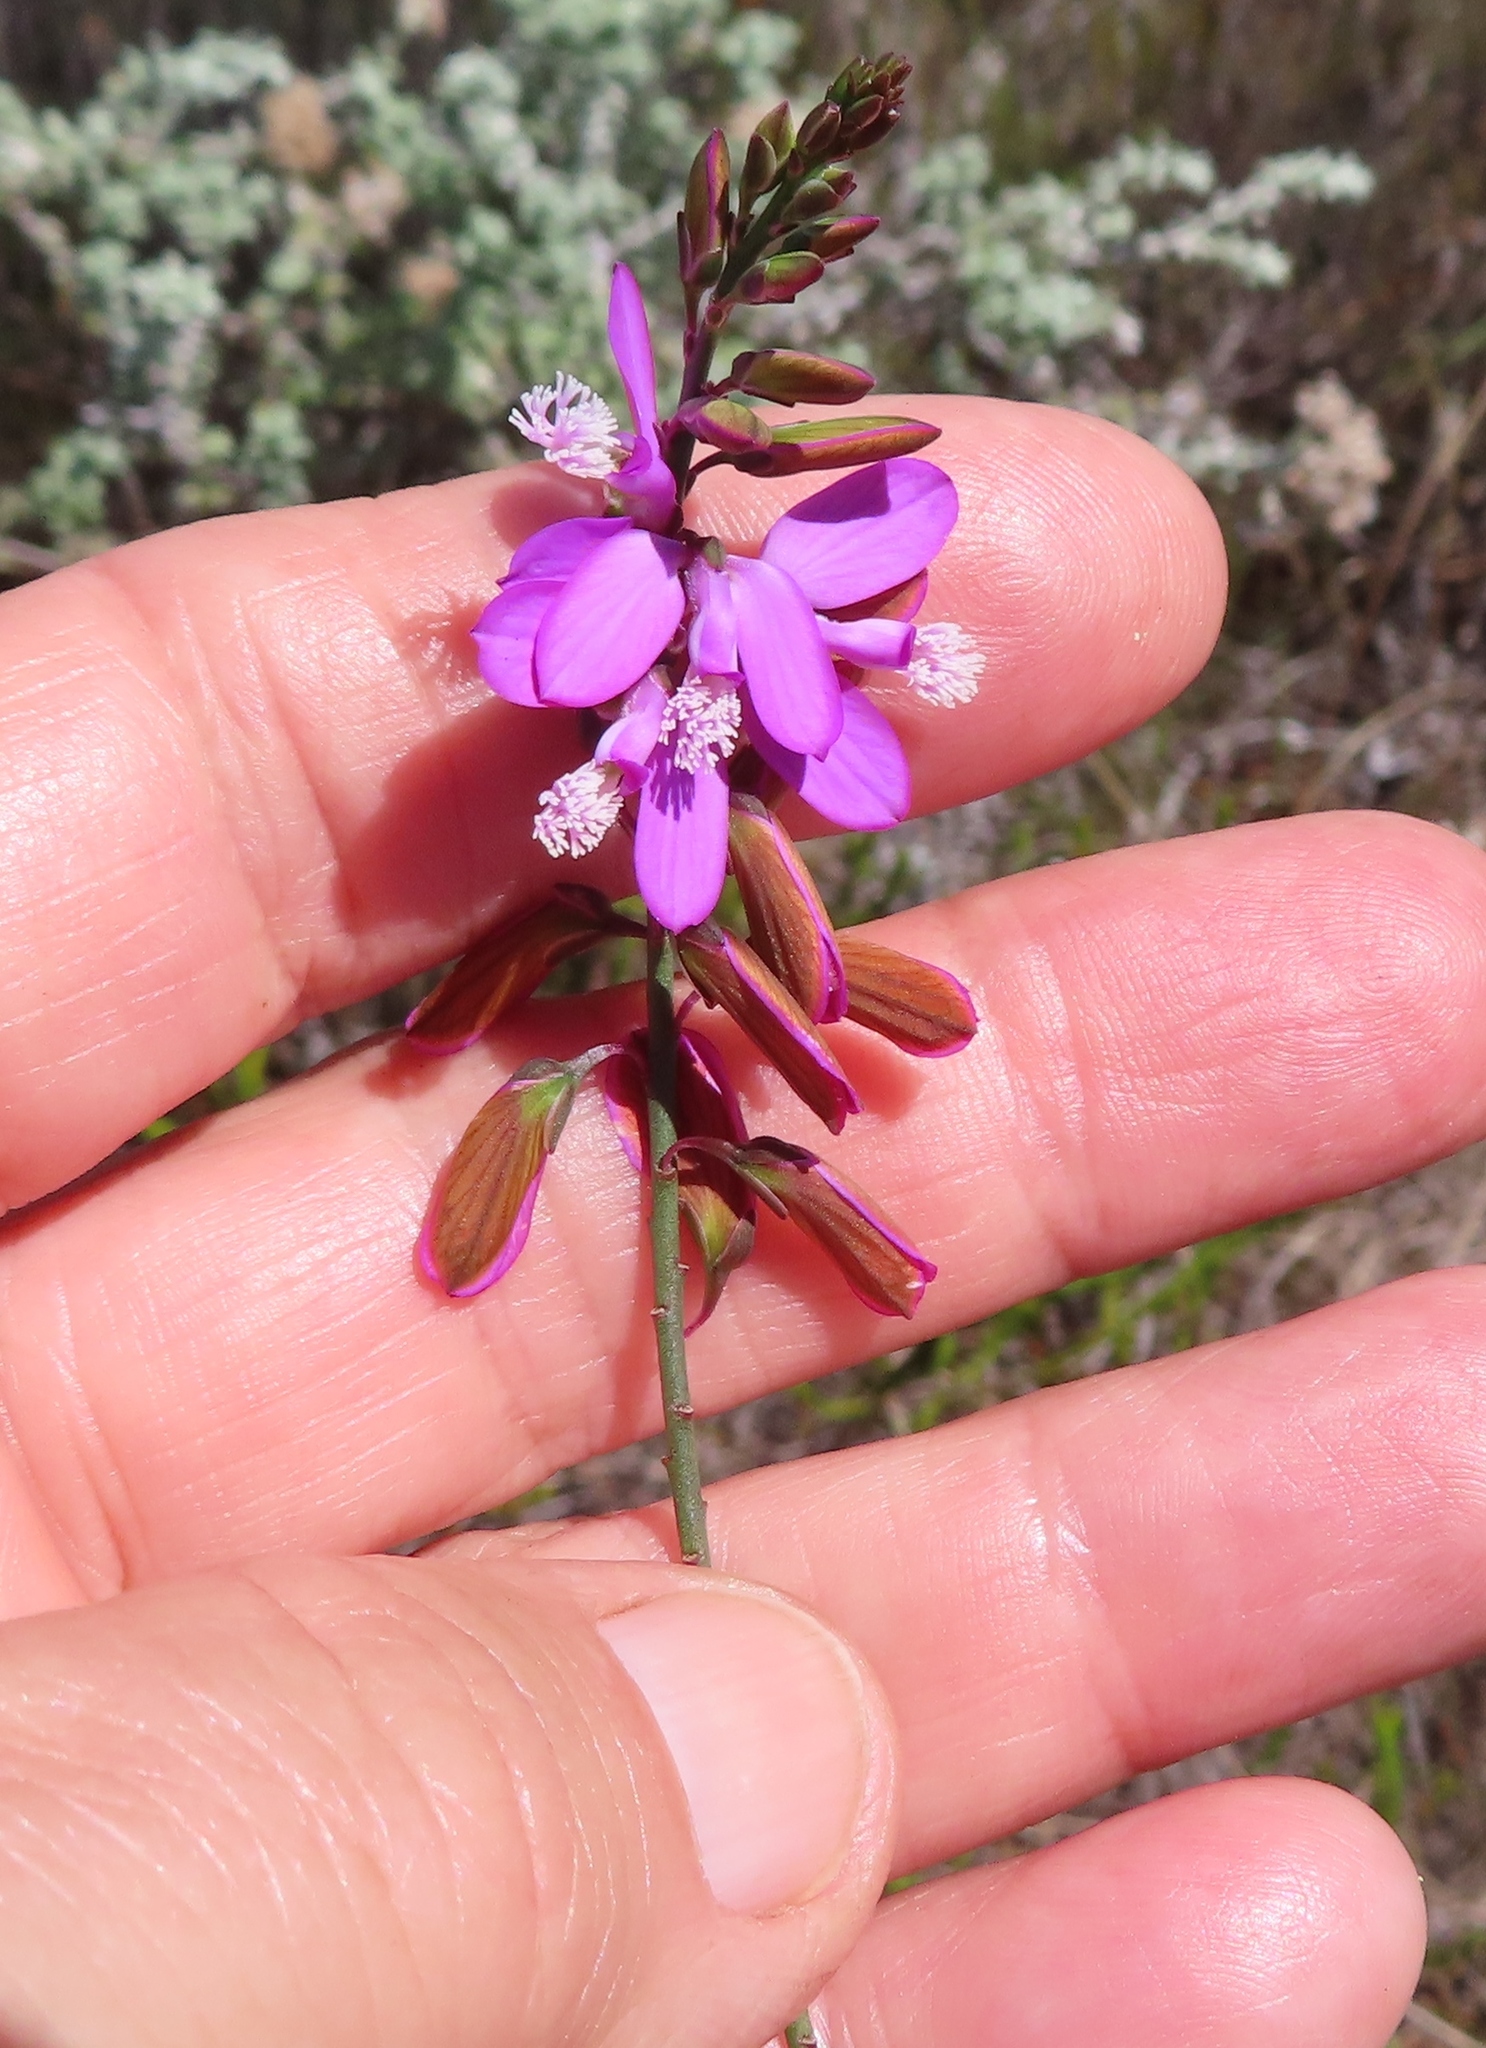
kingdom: Plantae
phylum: Tracheophyta
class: Magnoliopsida
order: Fabales
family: Polygalaceae
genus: Polygala
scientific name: Polygala garcini
